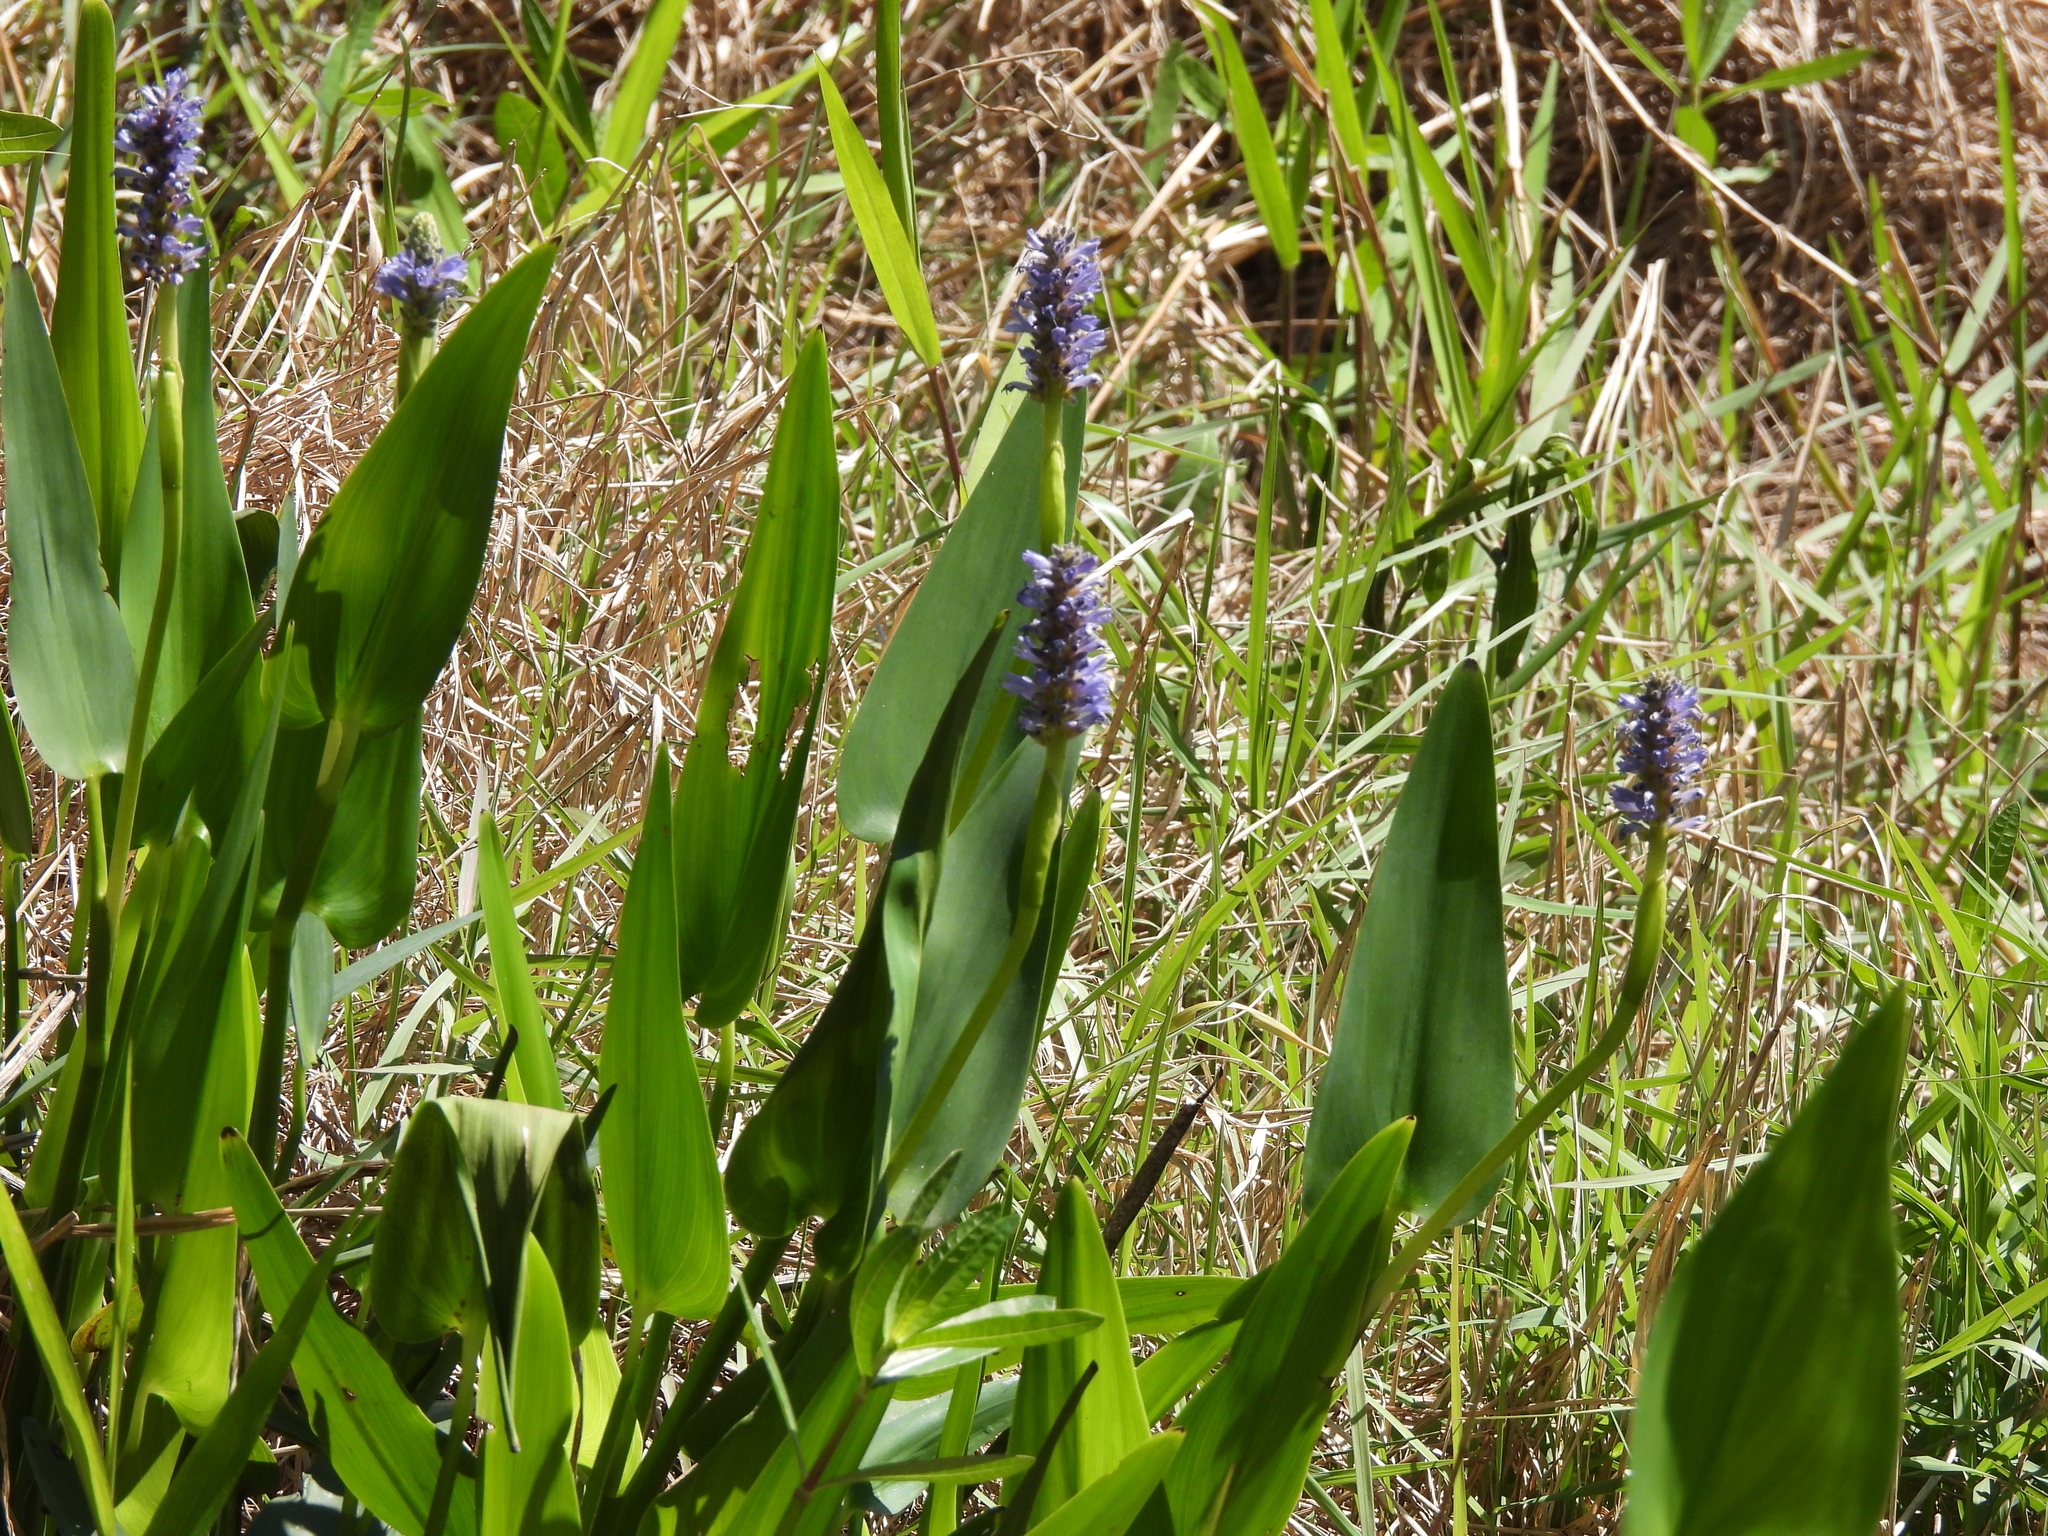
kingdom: Plantae
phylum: Tracheophyta
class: Liliopsida
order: Commelinales
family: Pontederiaceae
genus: Pontederia
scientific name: Pontederia cordata
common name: Pickerelweed
